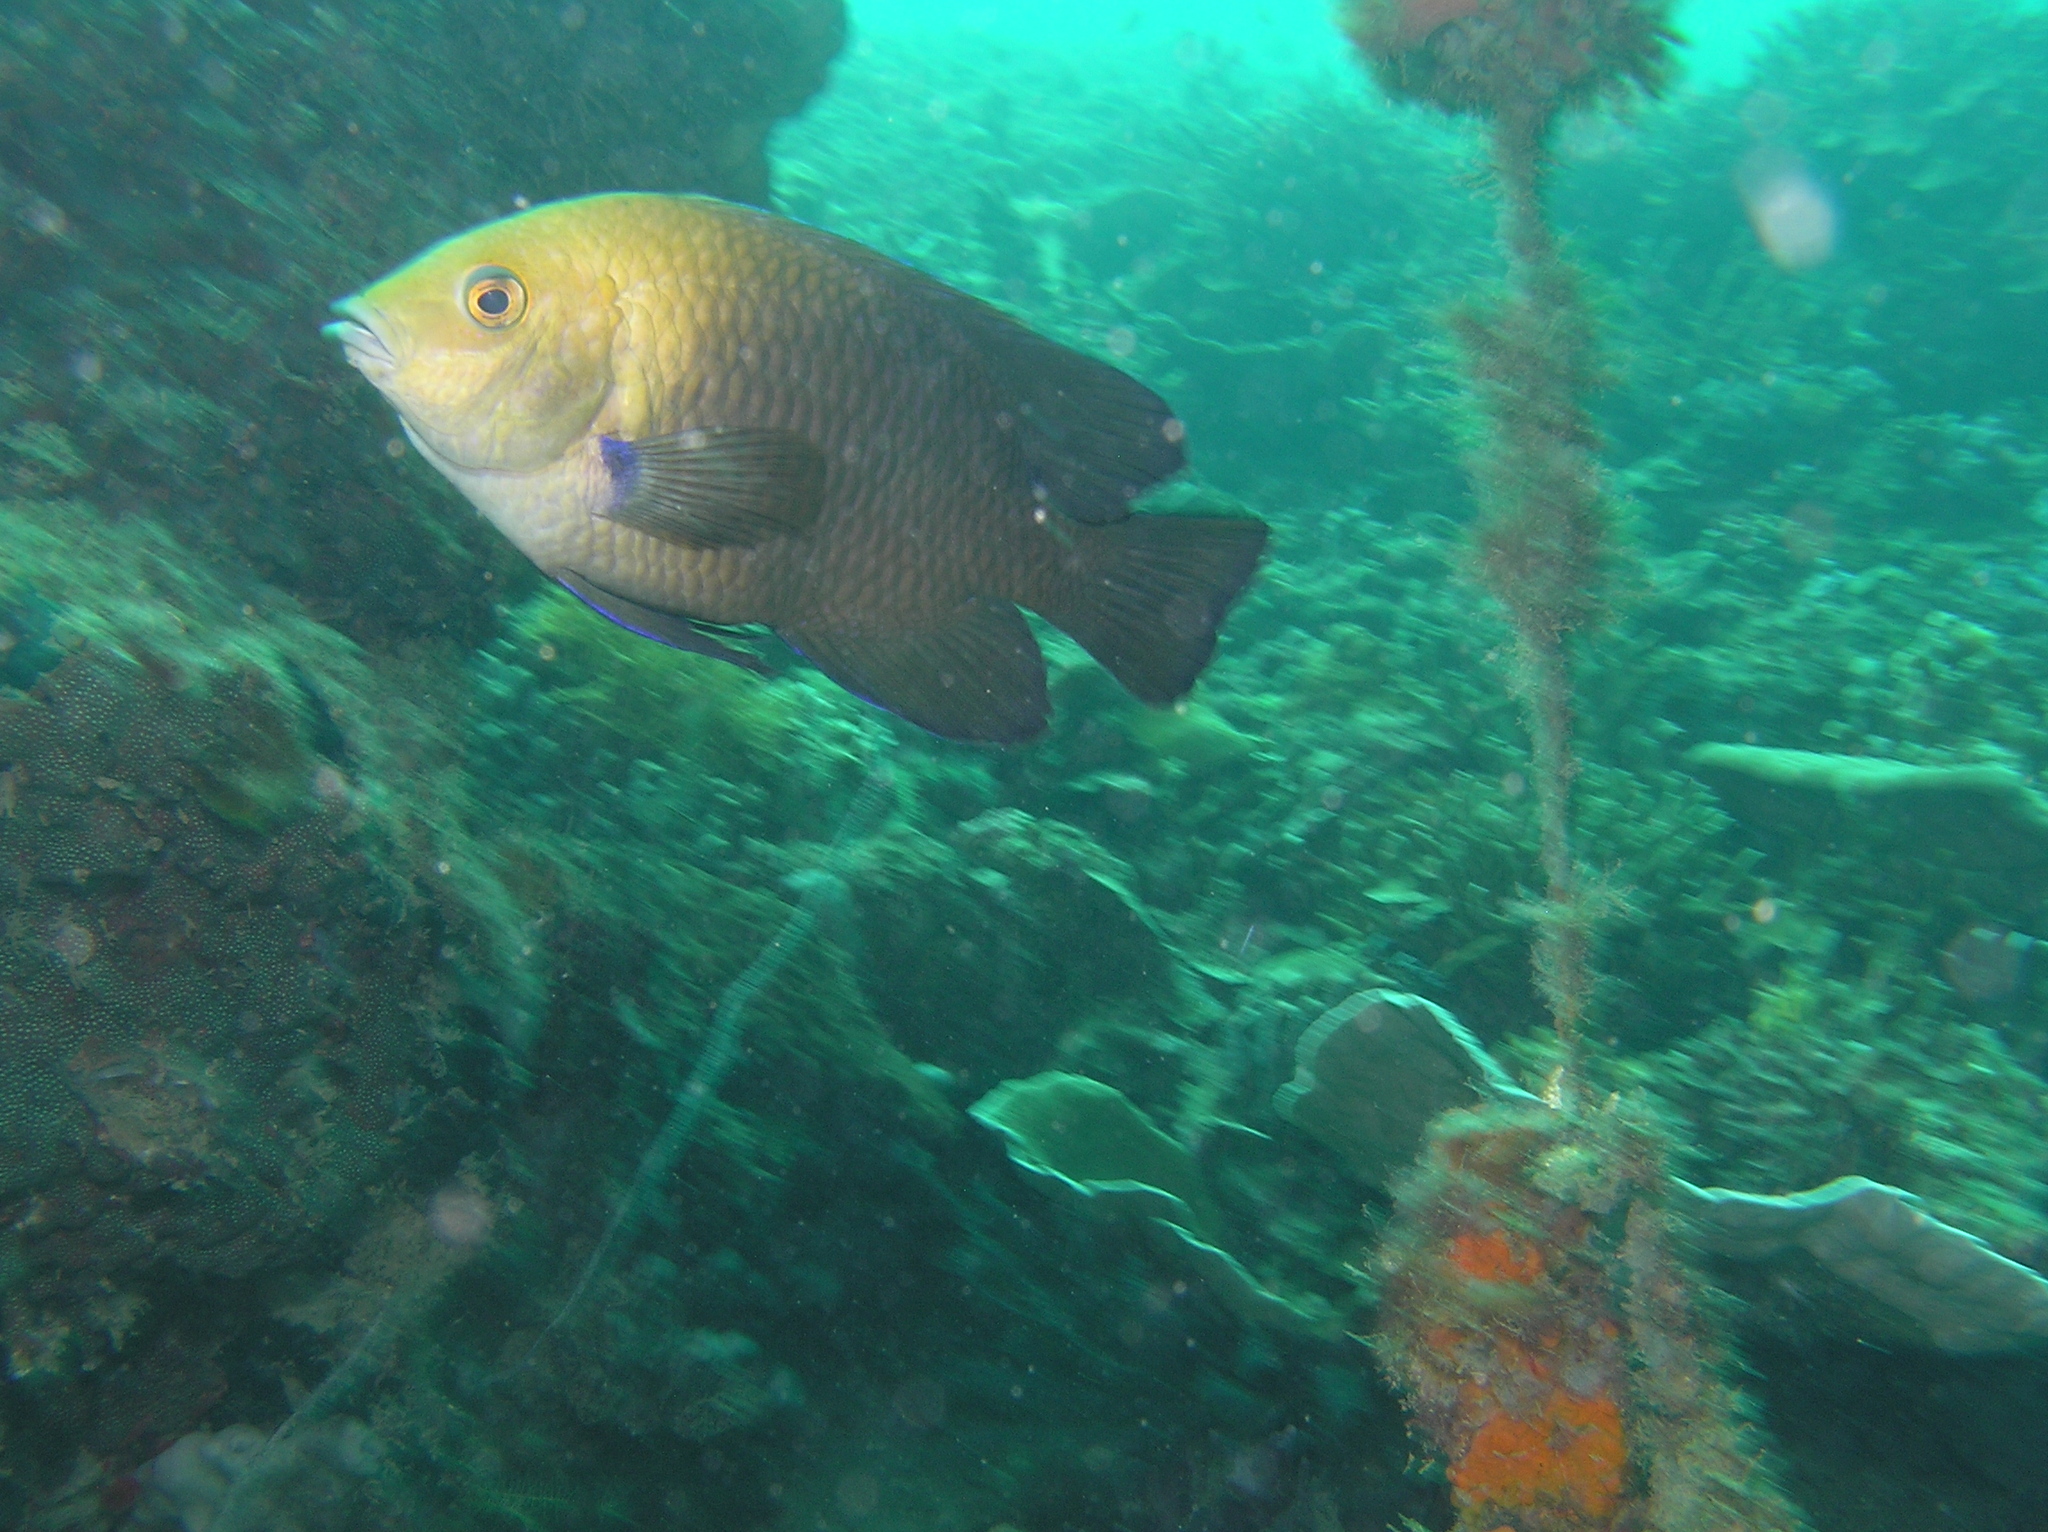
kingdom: Animalia
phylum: Chordata
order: Perciformes
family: Pomacentridae
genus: Hemiglyphidodon
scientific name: Hemiglyphidodon plagiometopon
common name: Lagoon damsel
